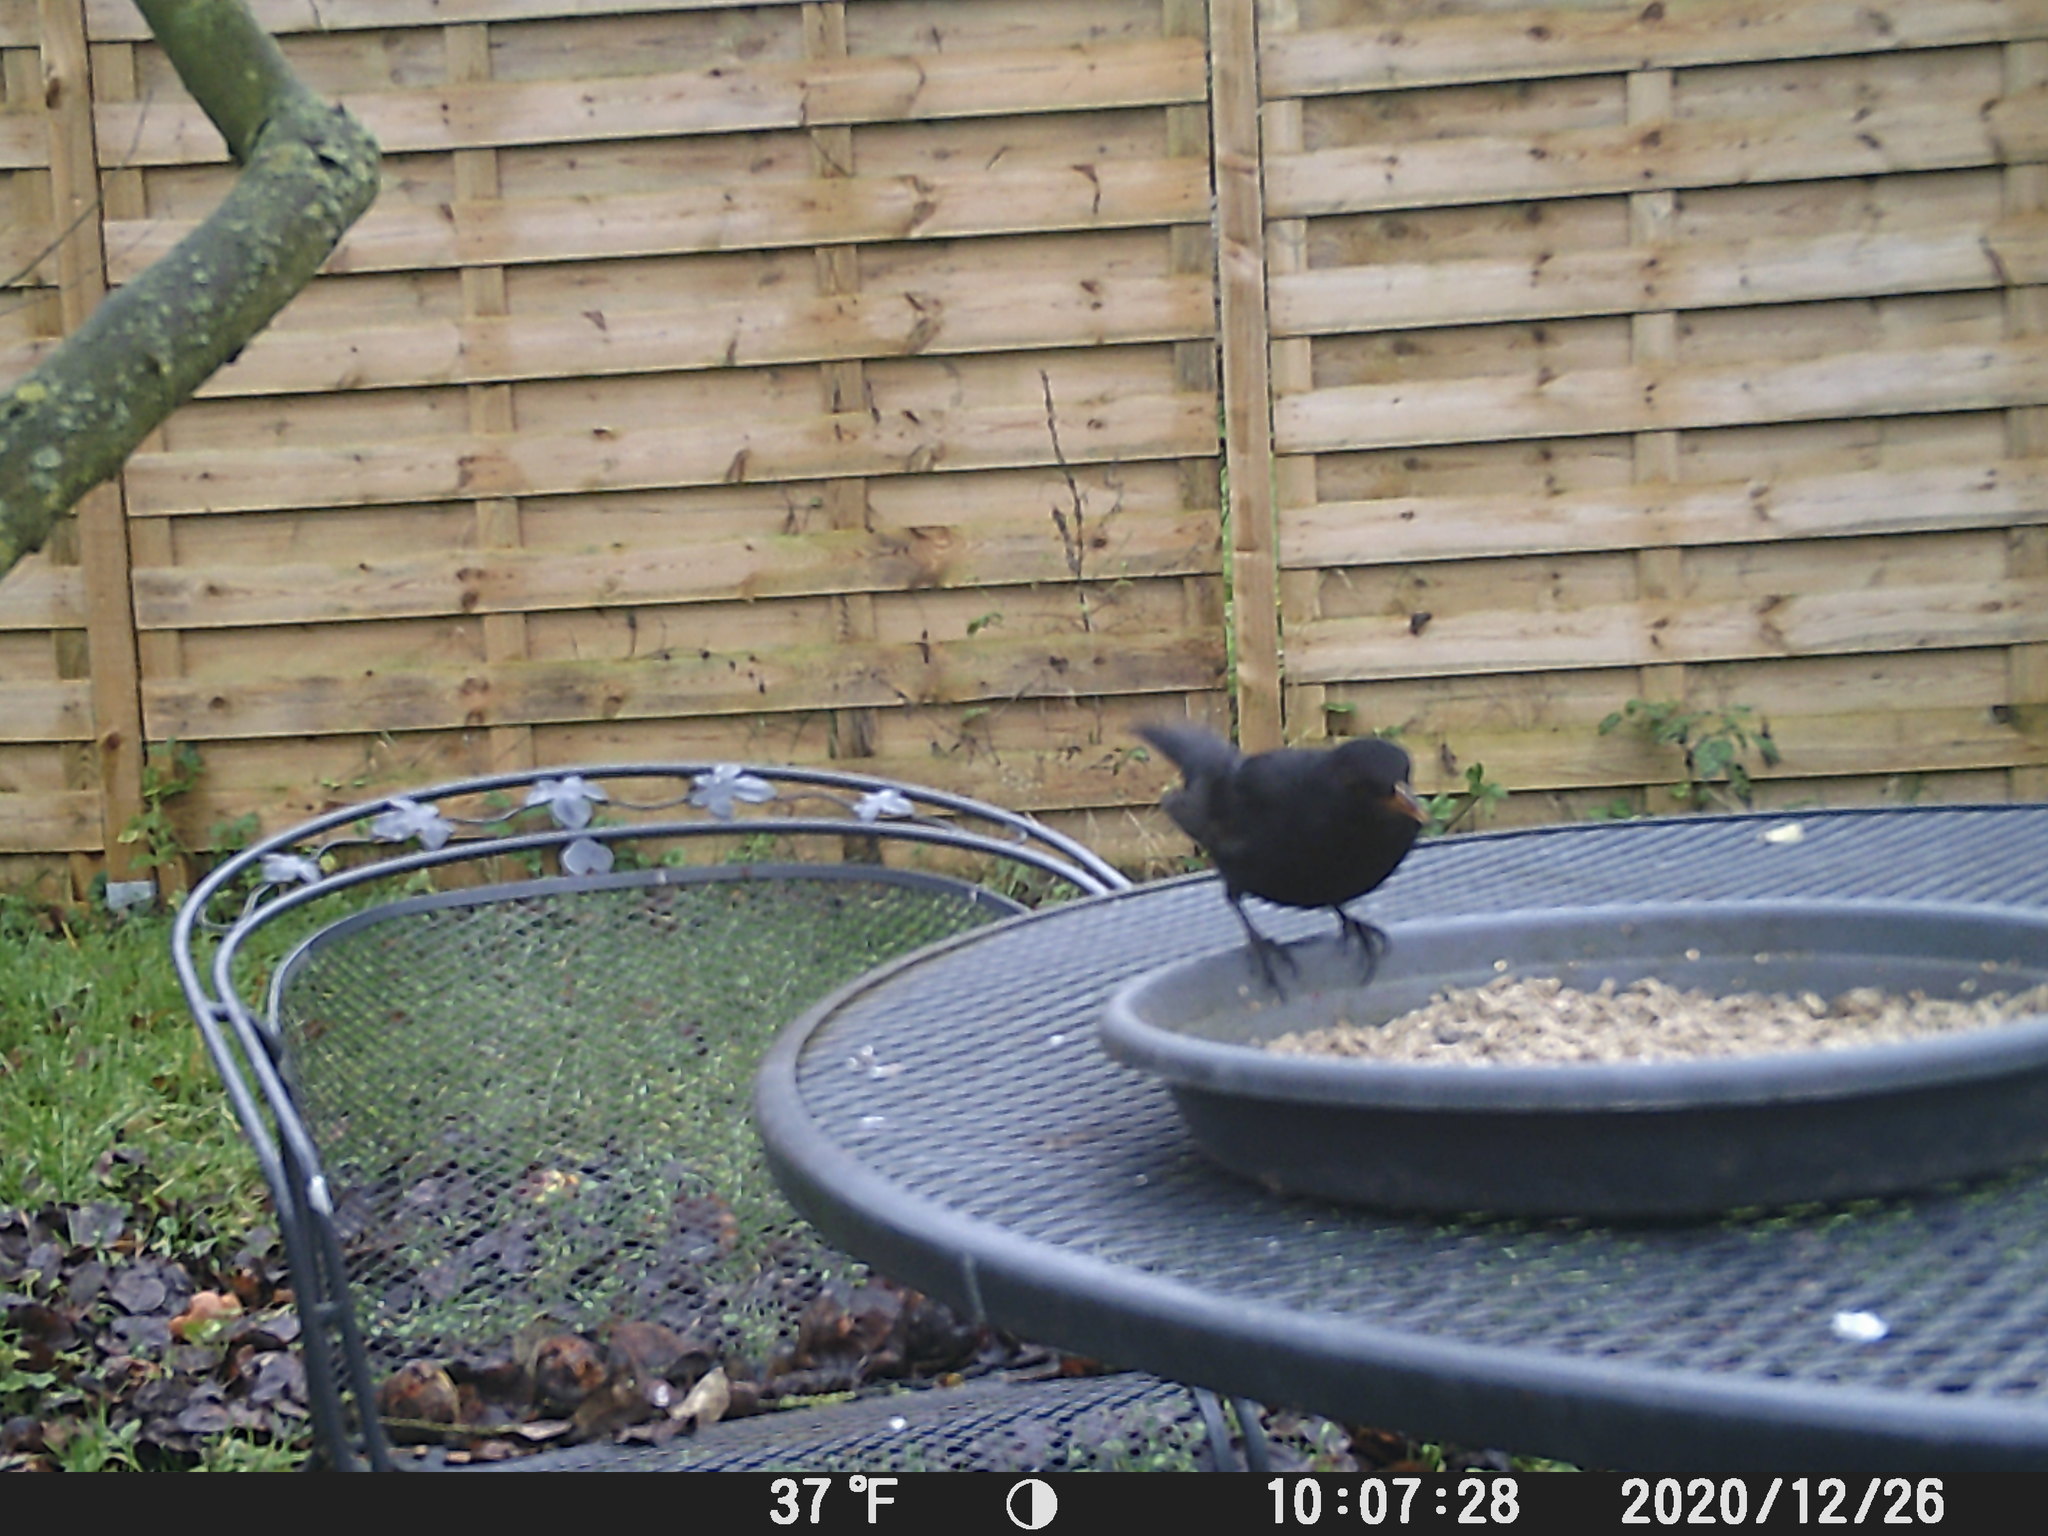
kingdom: Animalia
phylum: Chordata
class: Aves
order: Passeriformes
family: Turdidae
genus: Turdus
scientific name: Turdus merula
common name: Common blackbird
